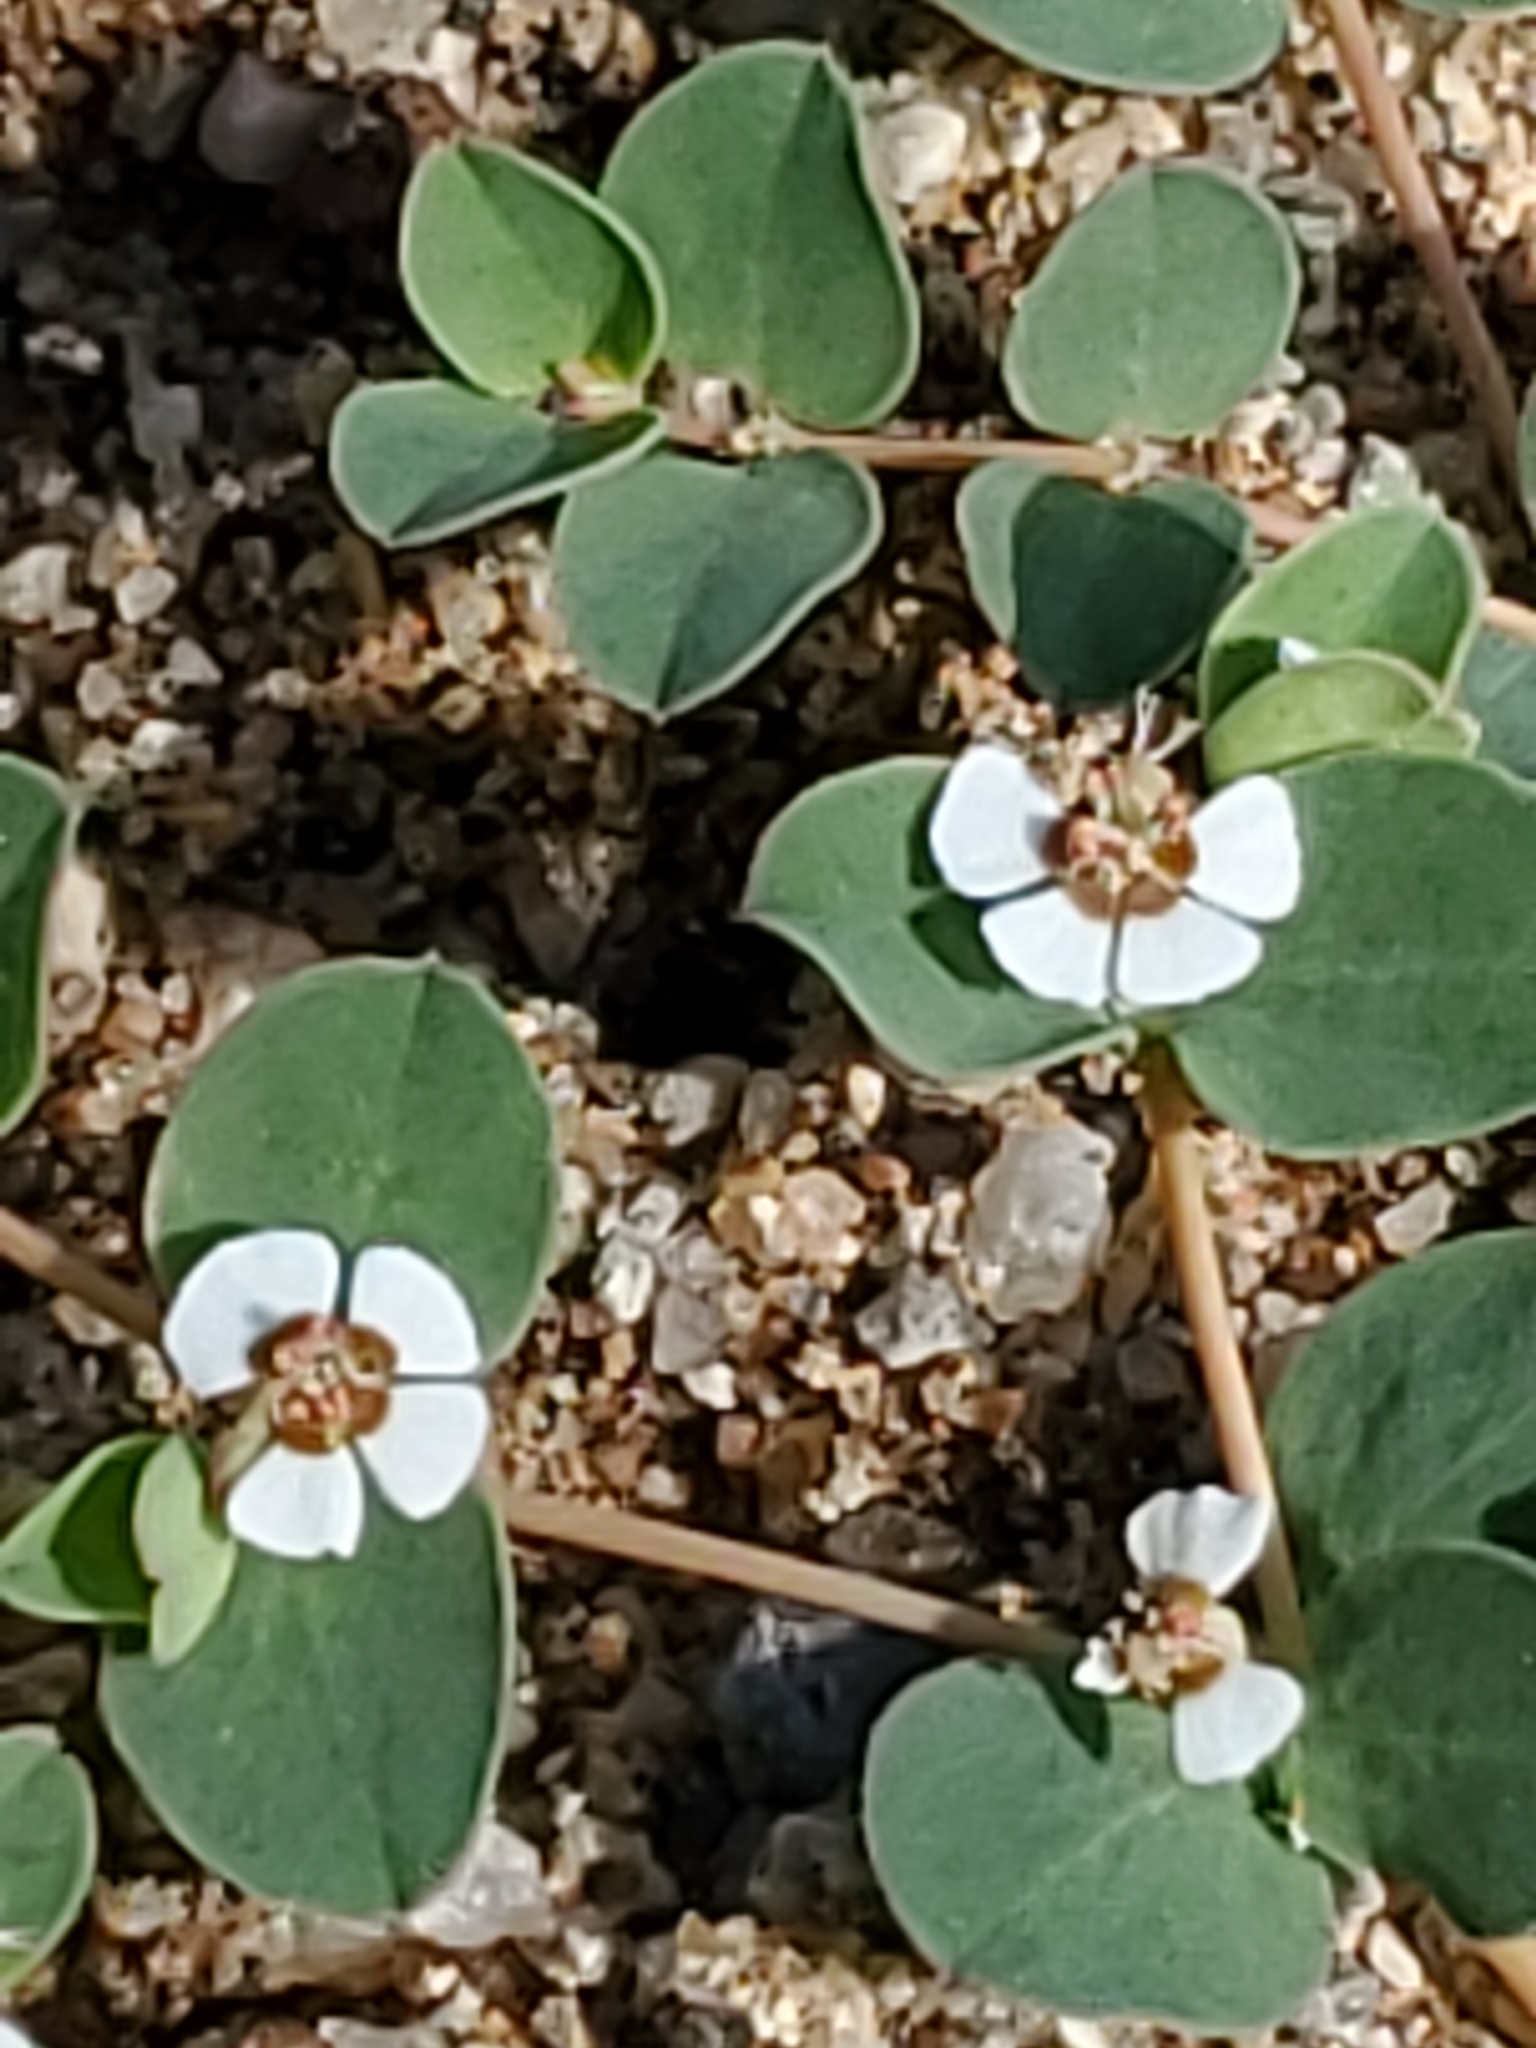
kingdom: Plantae
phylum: Tracheophyta
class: Magnoliopsida
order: Malpighiales
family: Euphorbiaceae
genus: Euphorbia
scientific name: Euphorbia albomarginata
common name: Whitemargin sandmat
